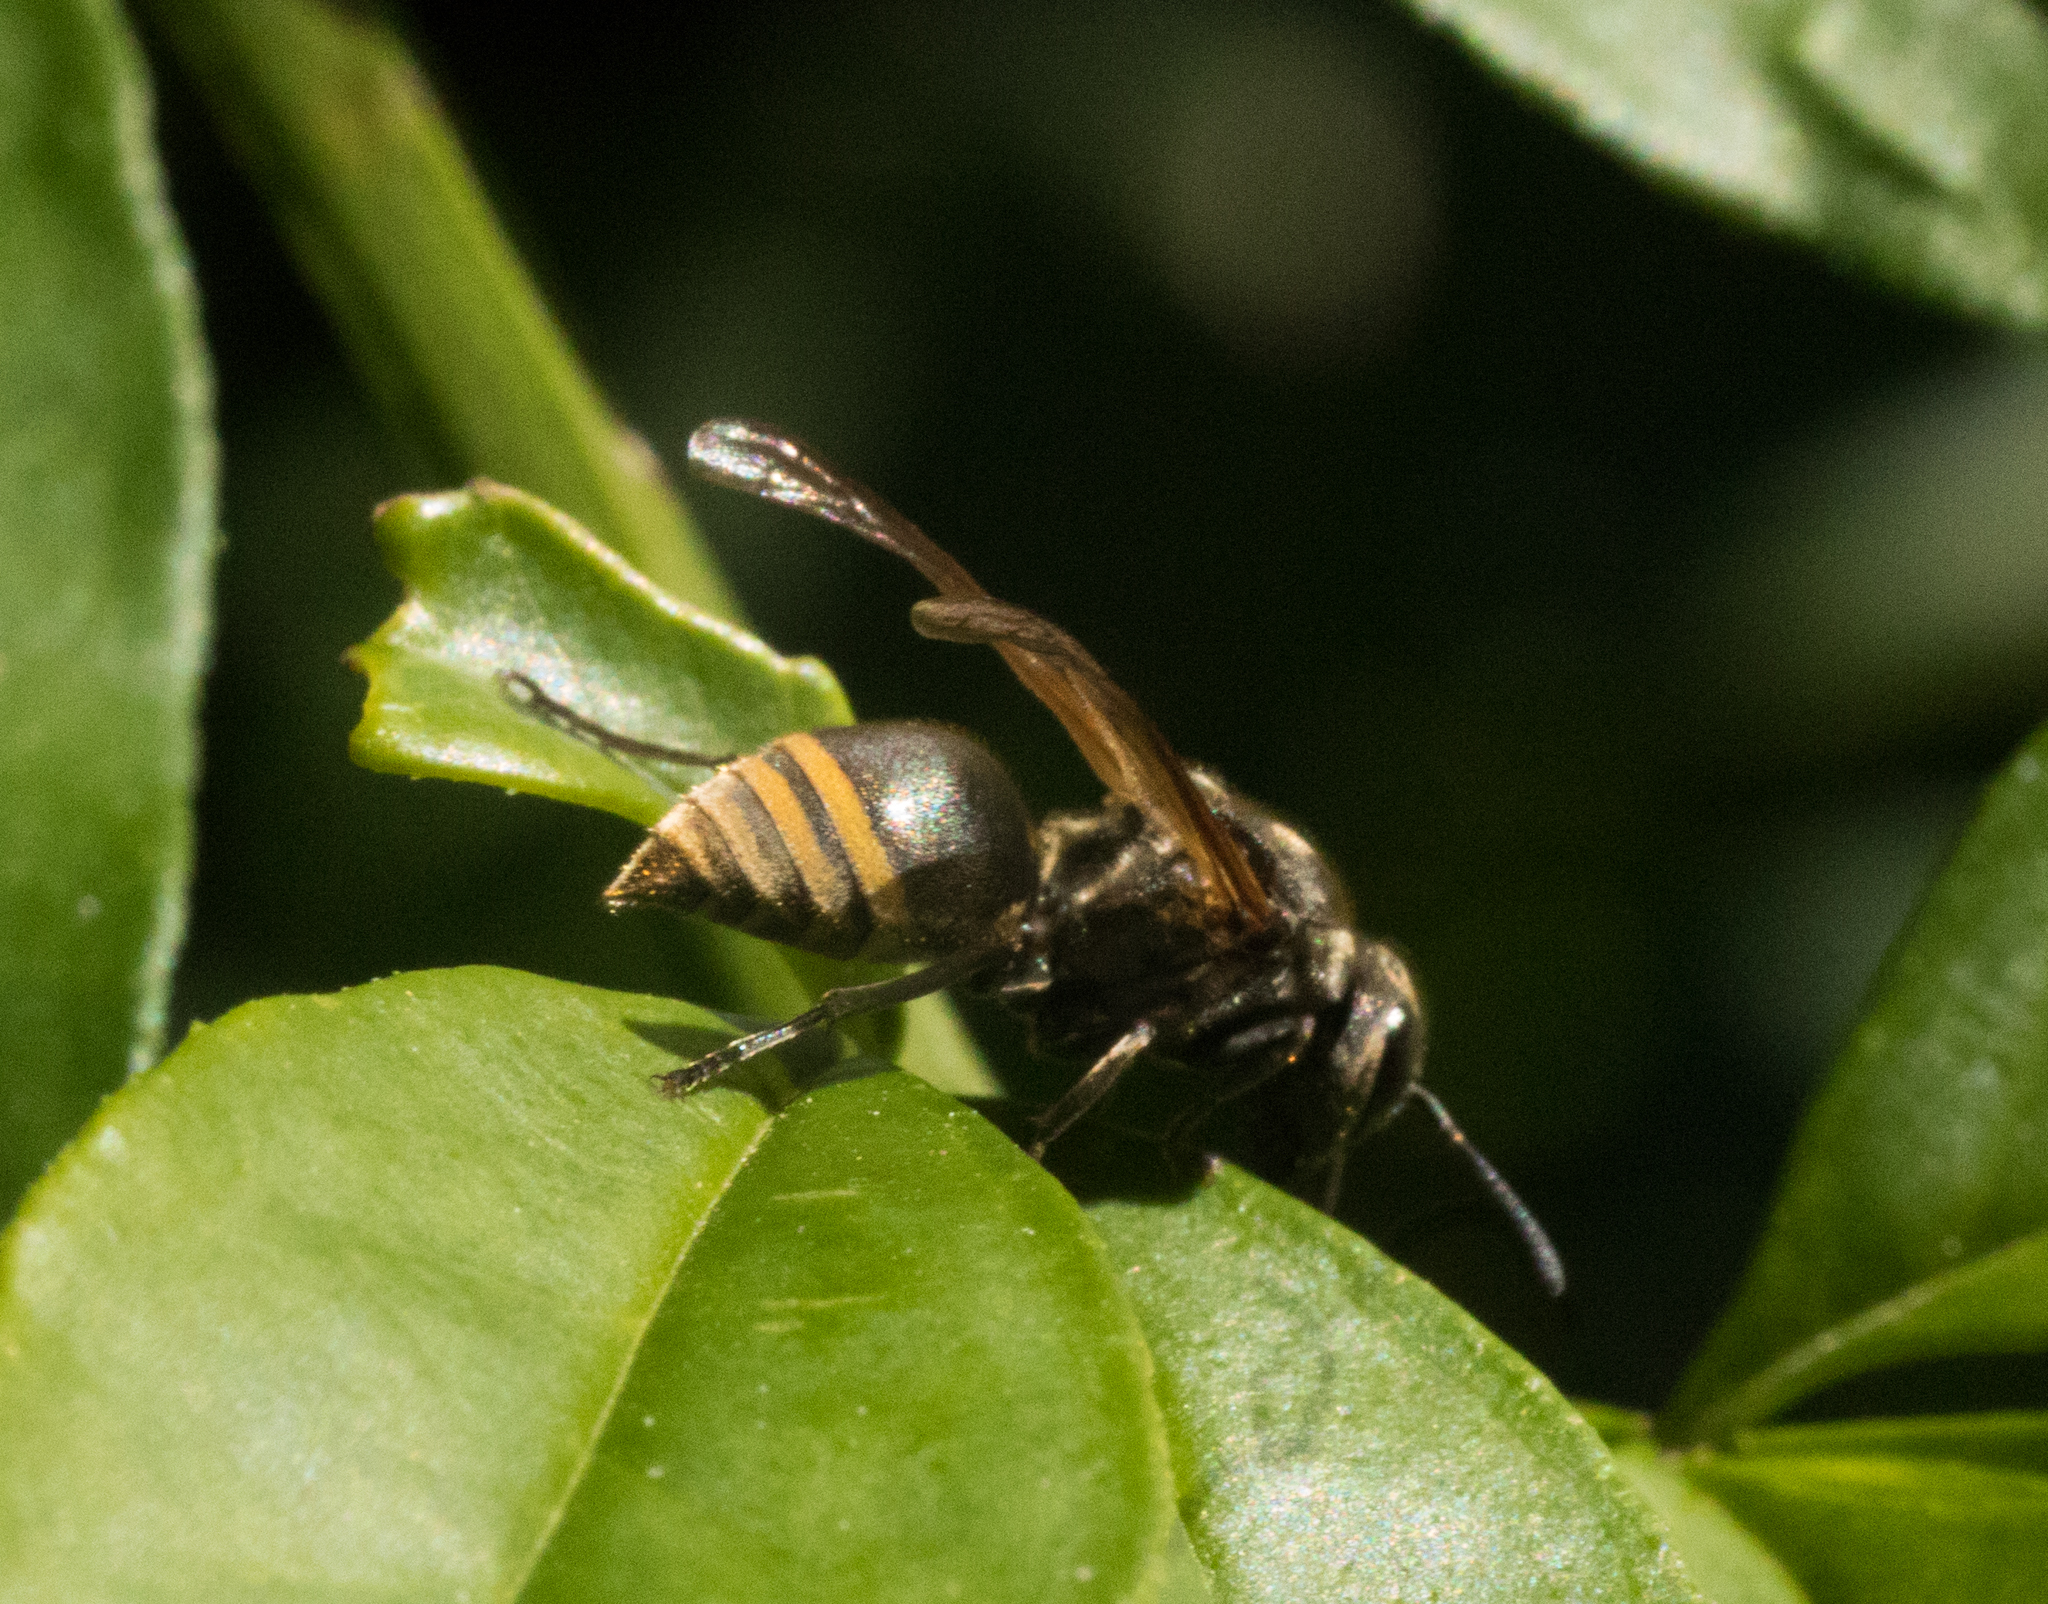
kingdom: Animalia
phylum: Arthropoda
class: Insecta
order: Hymenoptera
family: Vespidae
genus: Brachygastra
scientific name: Brachygastra lecheguana
